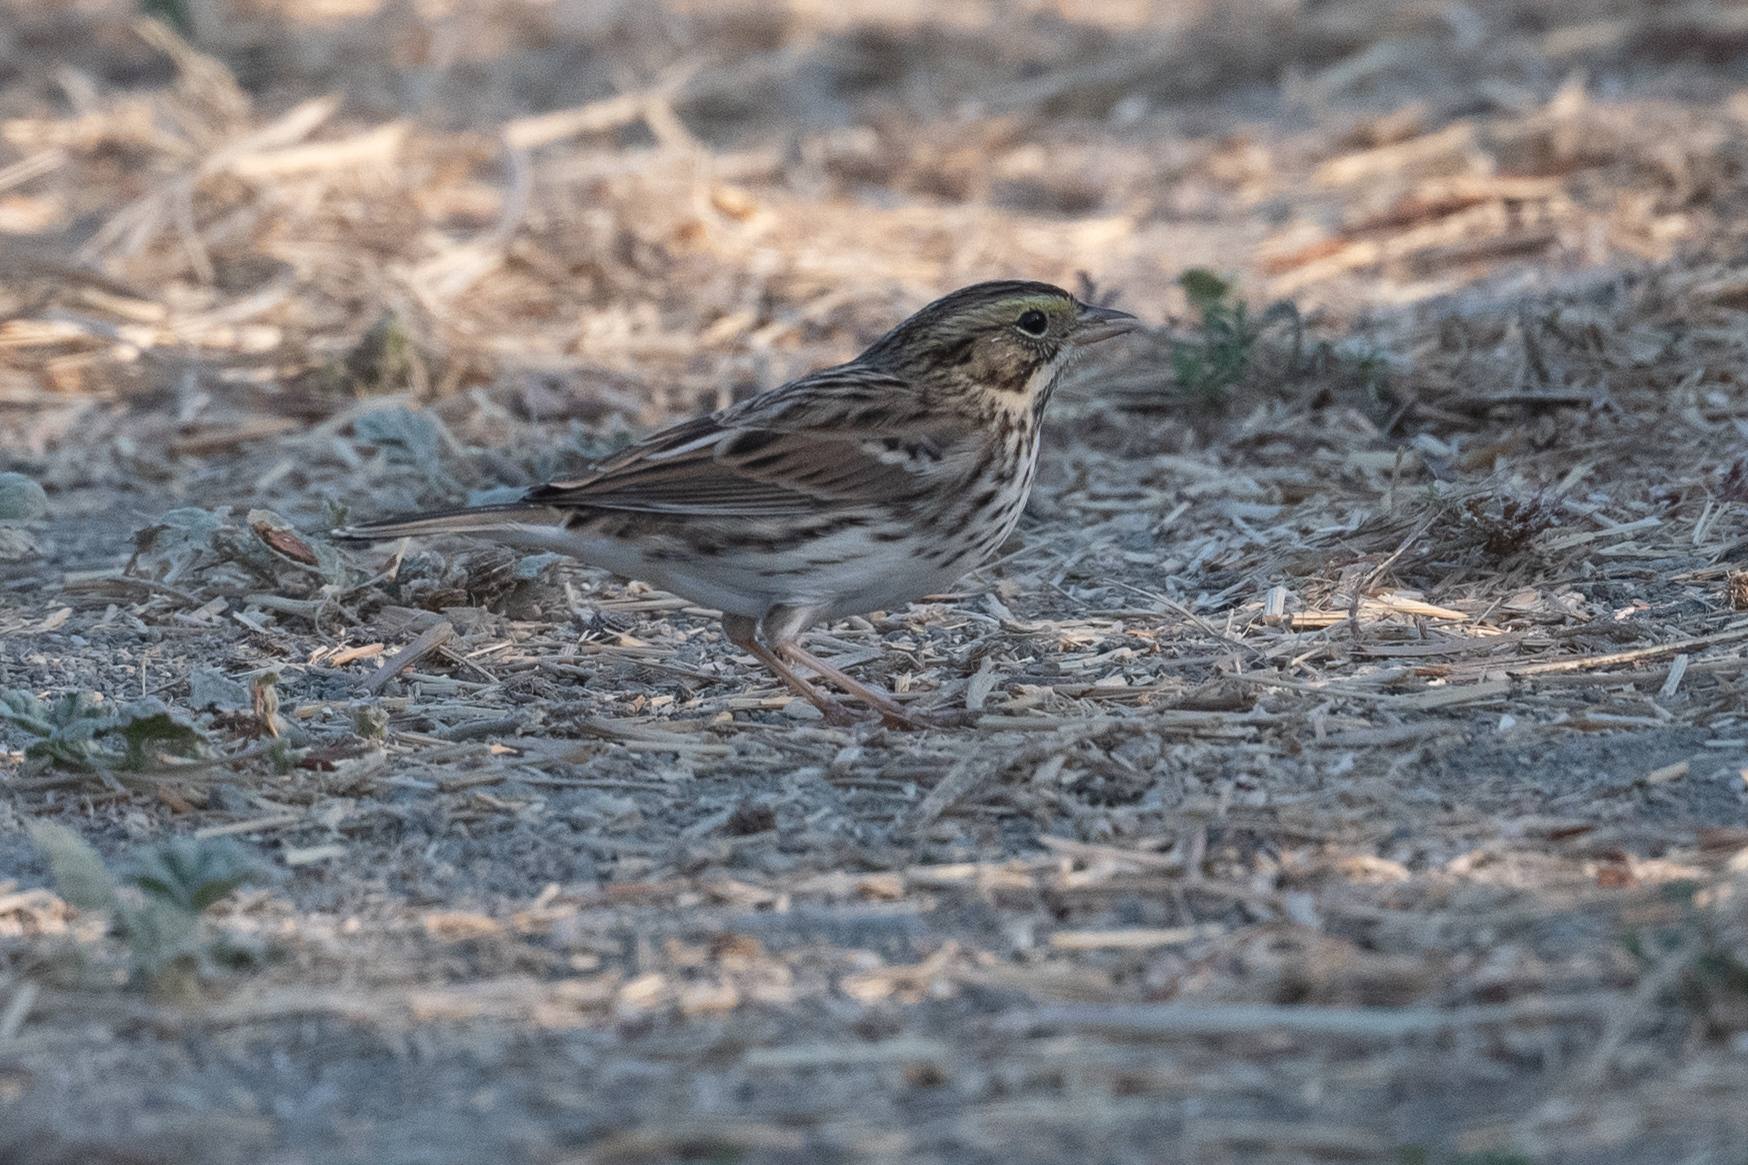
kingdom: Animalia
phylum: Chordata
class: Aves
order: Passeriformes
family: Passerellidae
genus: Passerculus
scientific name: Passerculus sandwichensis
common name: Savannah sparrow
